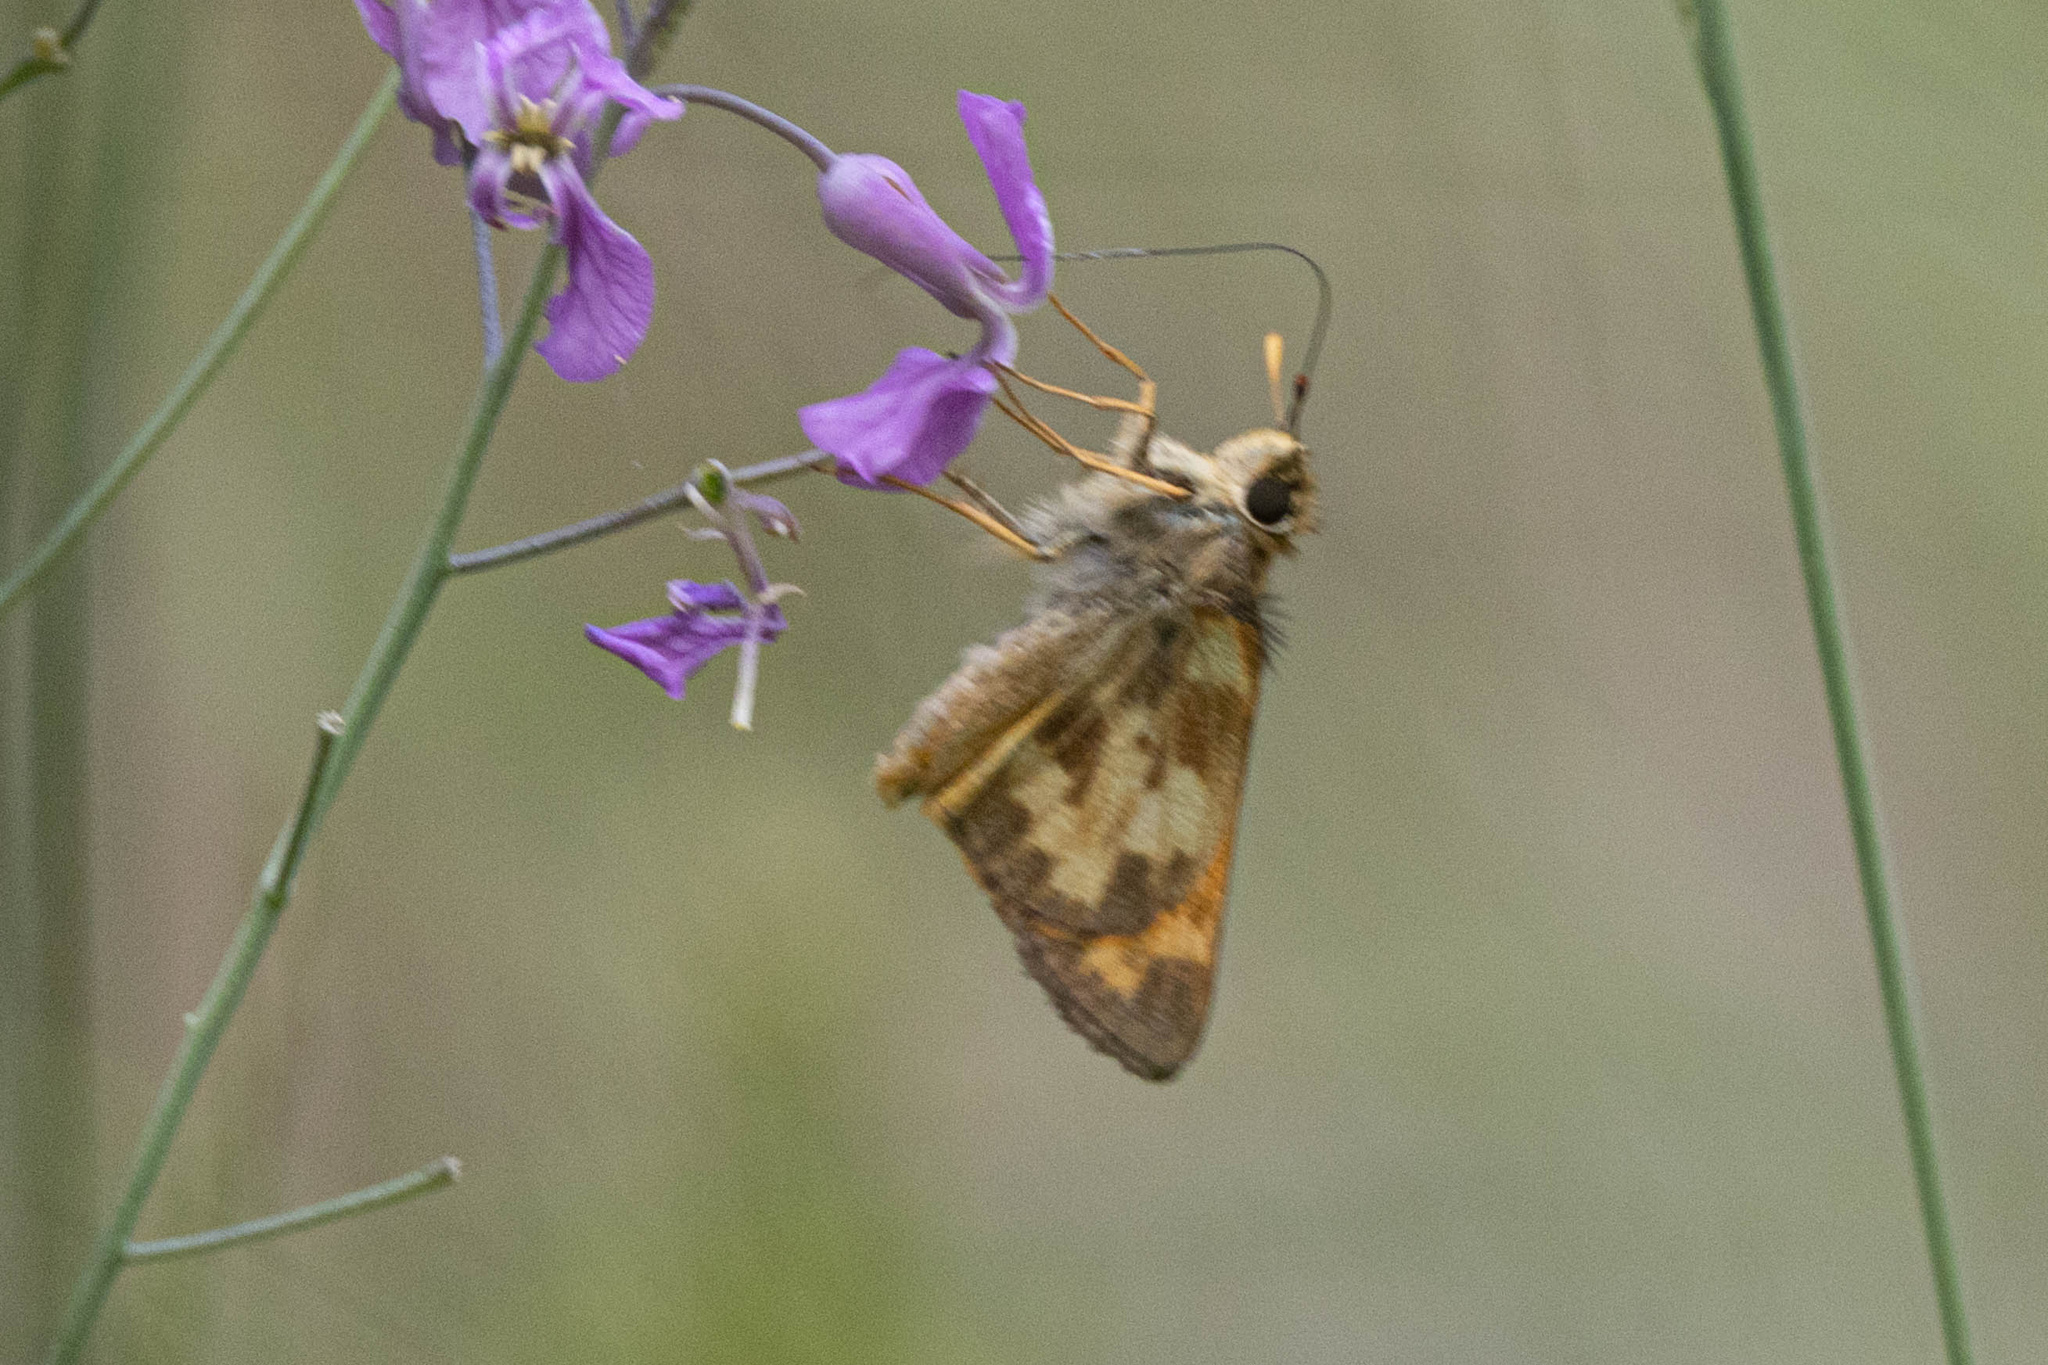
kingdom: Animalia
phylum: Arthropoda
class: Insecta
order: Lepidoptera
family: Hesperiidae
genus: Lon
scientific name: Lon taxiles
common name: Taxiles skipper
